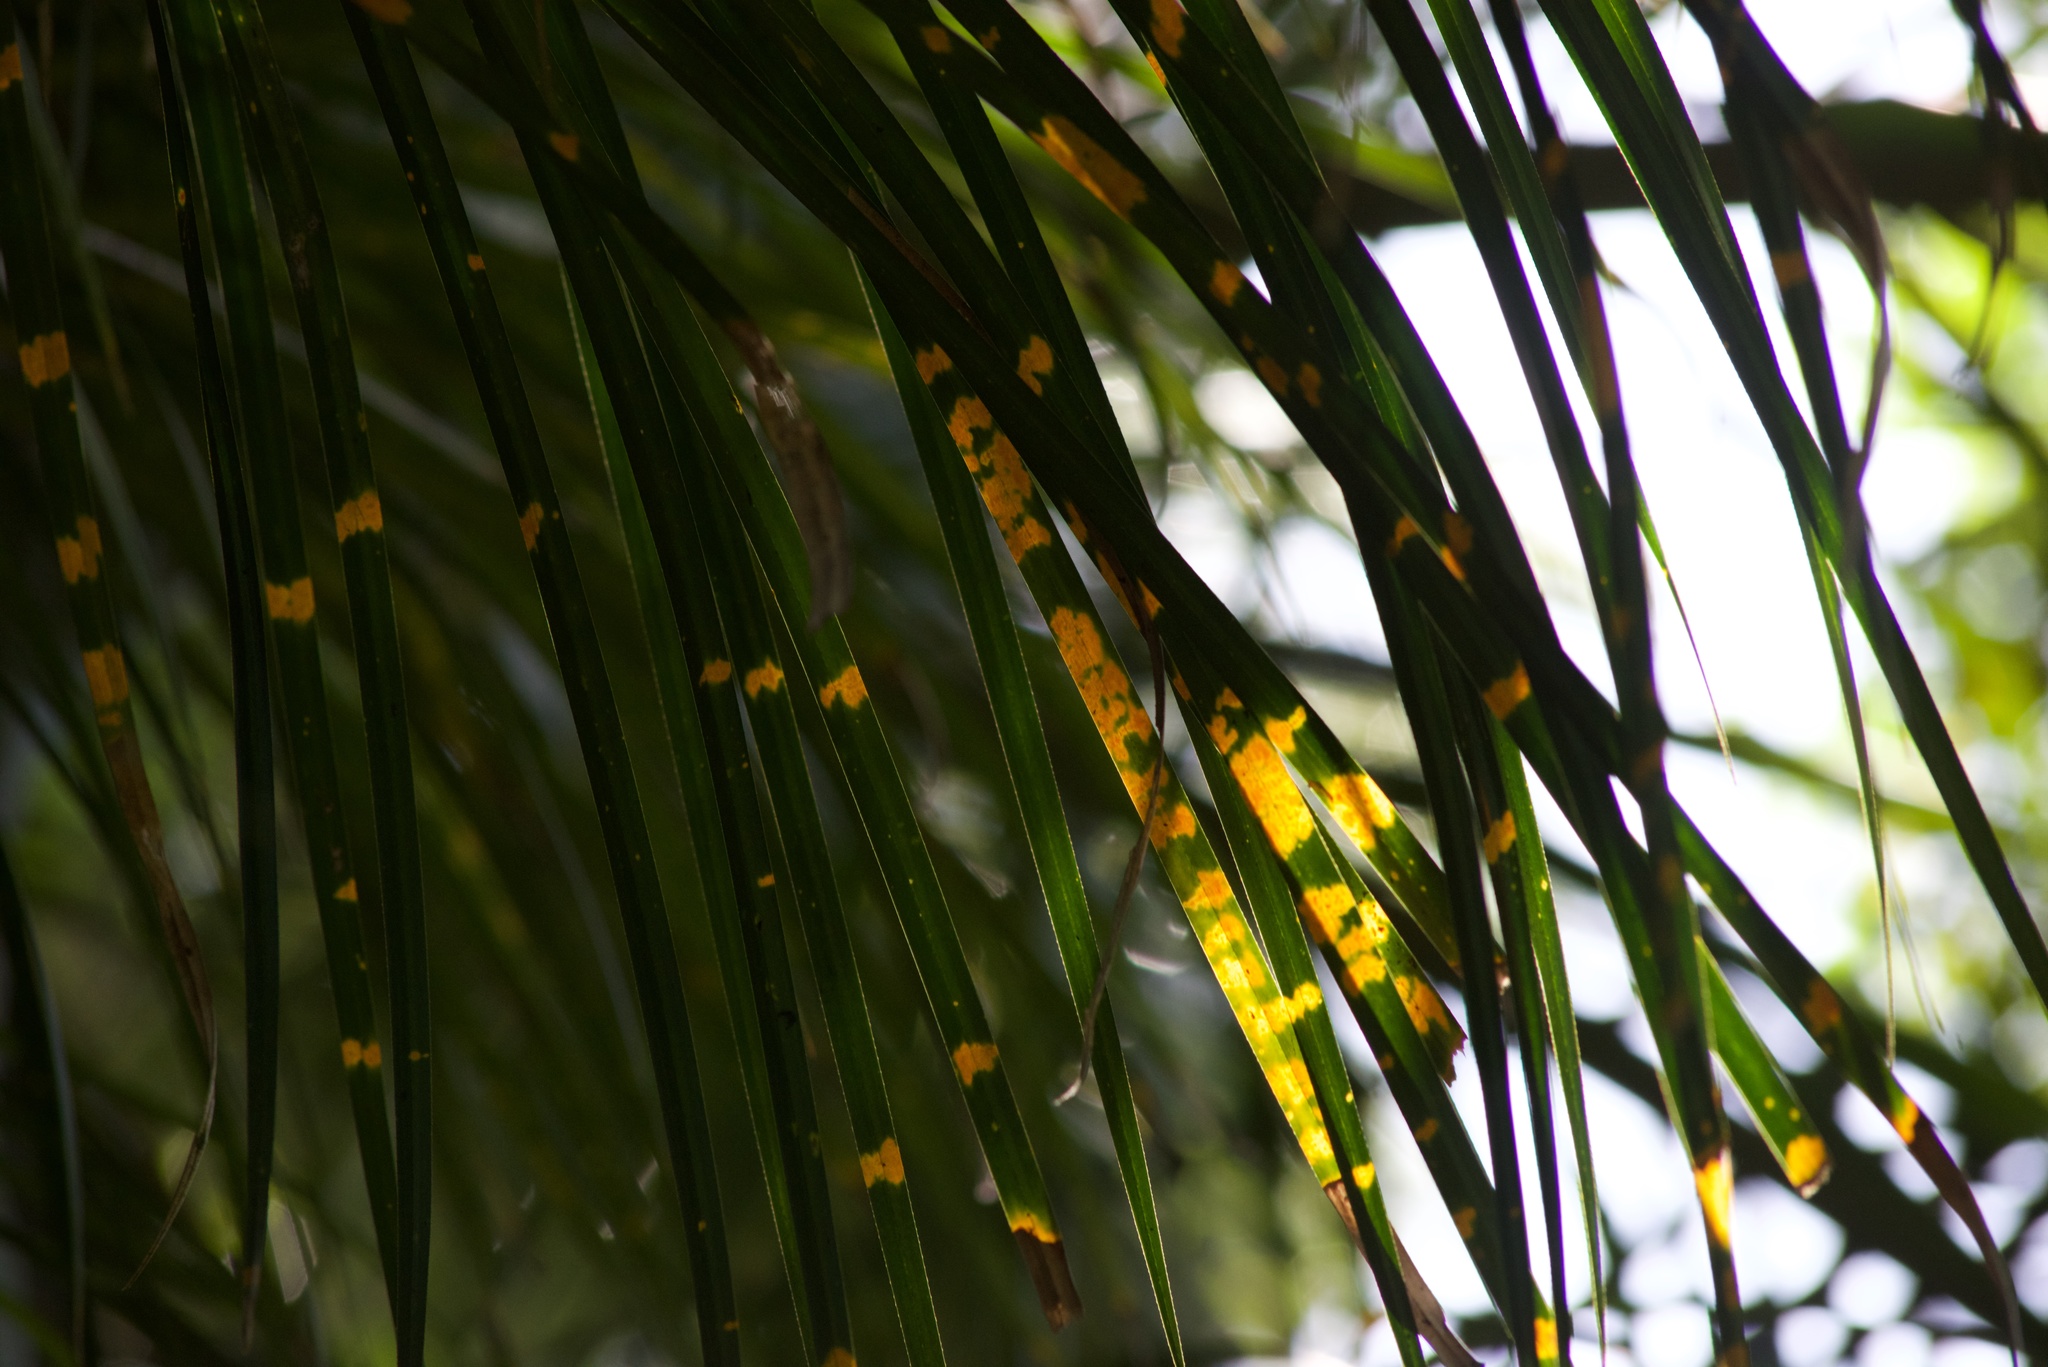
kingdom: Plantae
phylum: Tracheophyta
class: Liliopsida
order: Pandanales
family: Pandanaceae
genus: Freycinetia
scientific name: Freycinetia banksii
